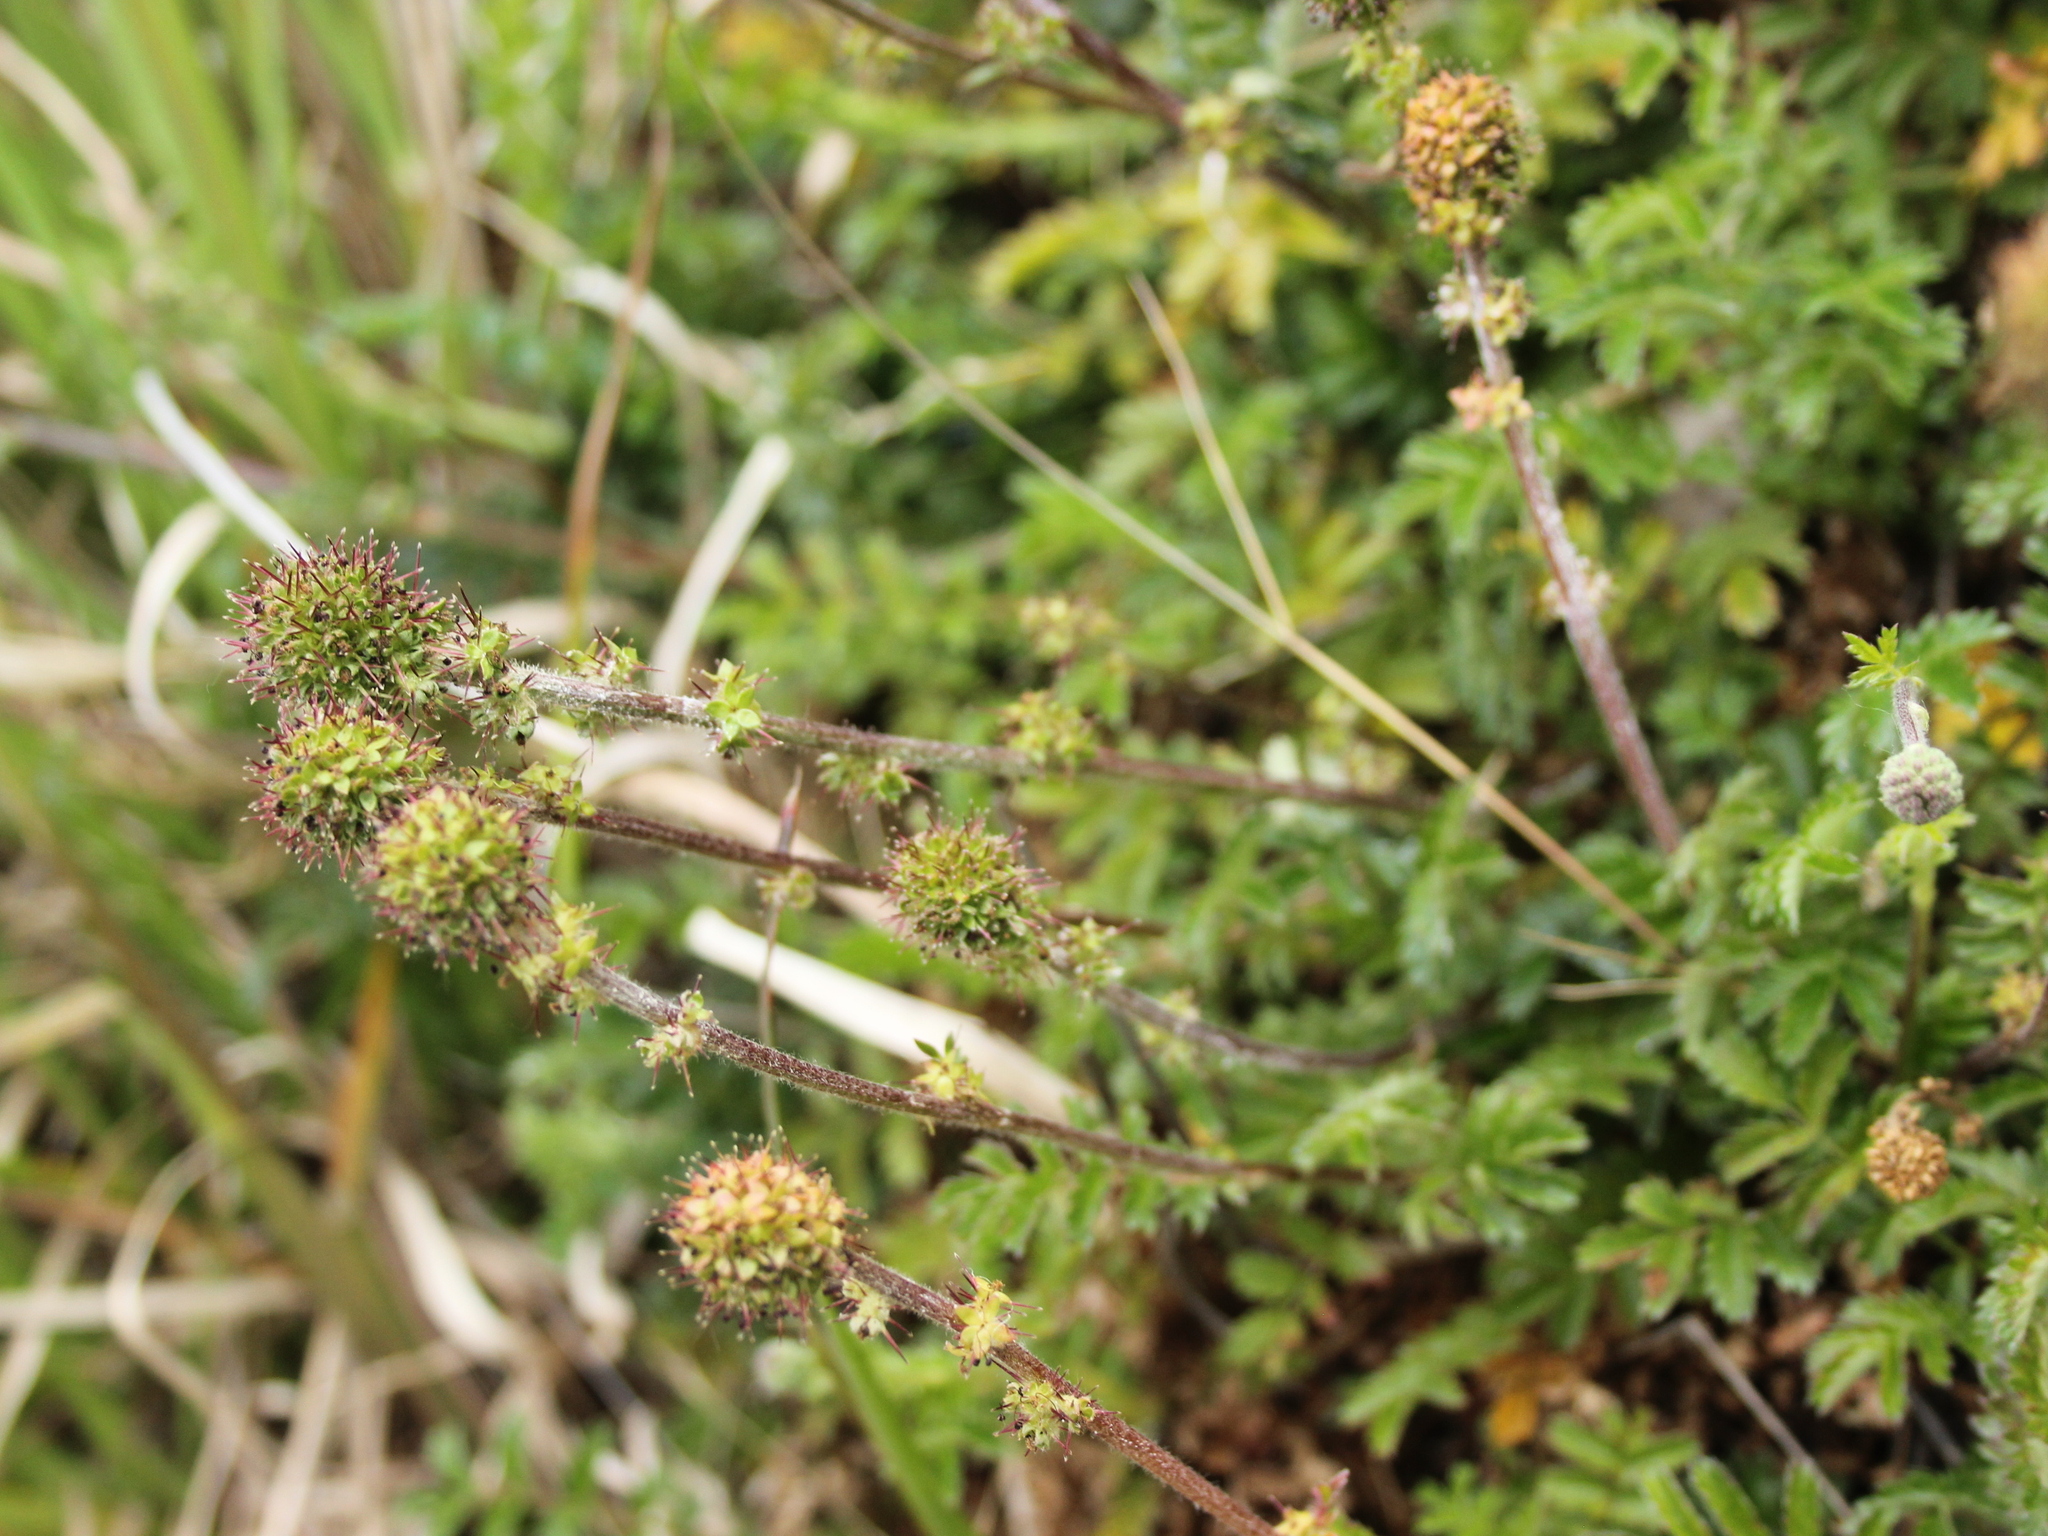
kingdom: Plantae
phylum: Tracheophyta
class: Magnoliopsida
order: Rosales
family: Rosaceae
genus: Acaena
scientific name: Acaena
